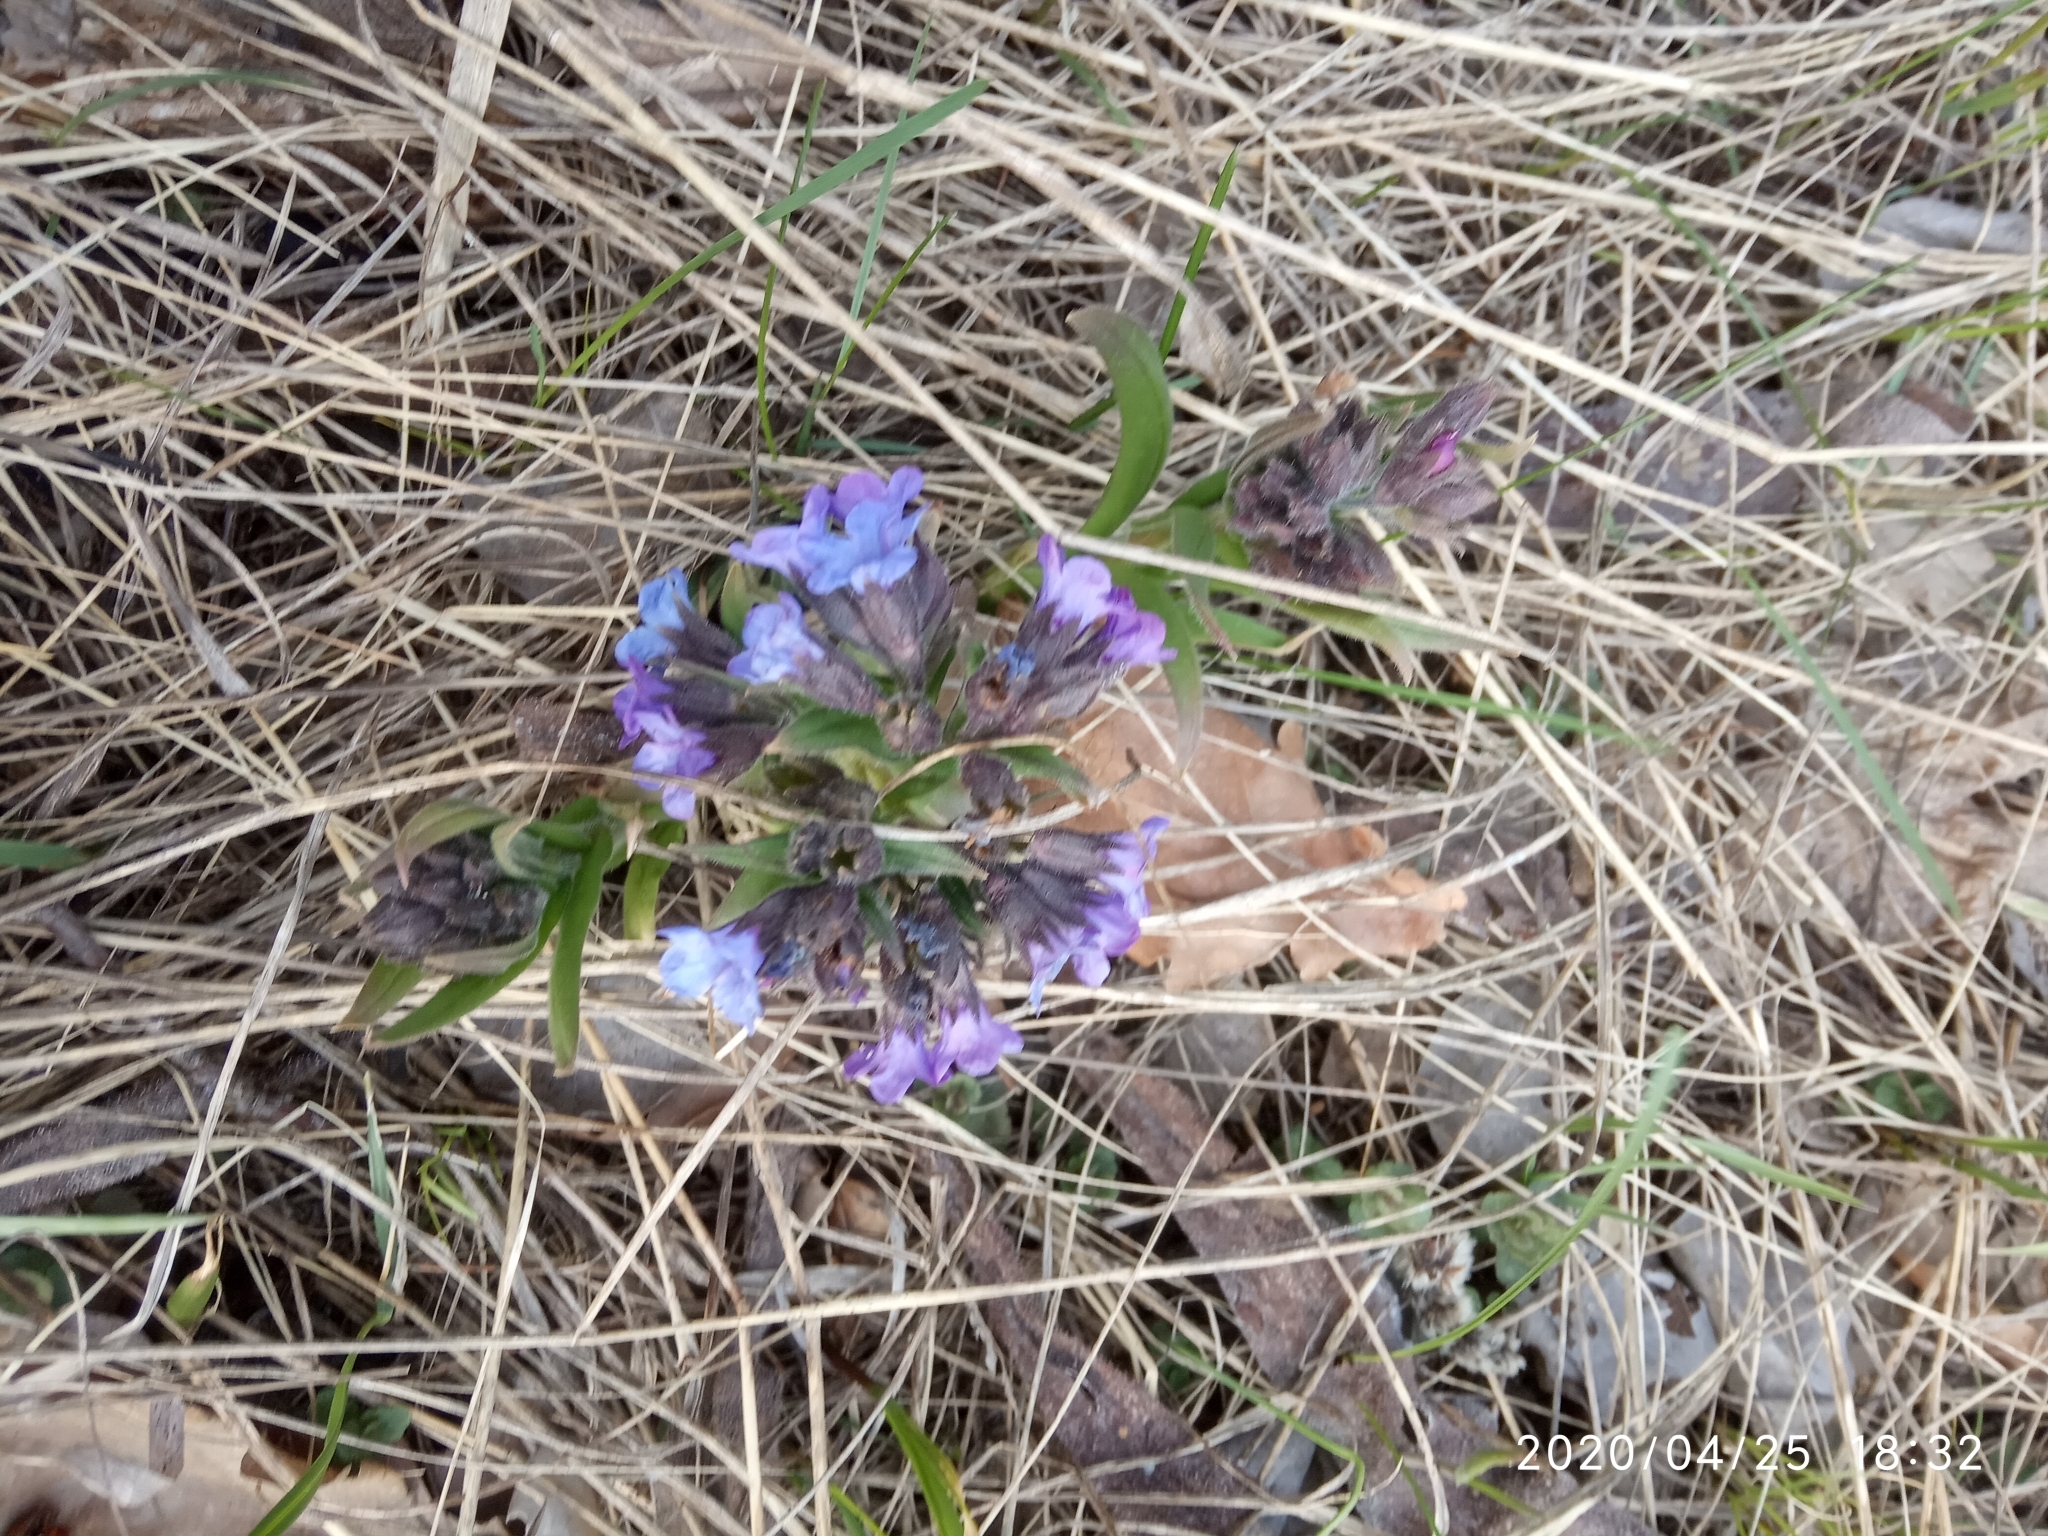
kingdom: Plantae
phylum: Tracheophyta
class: Magnoliopsida
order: Boraginales
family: Boraginaceae
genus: Pulmonaria
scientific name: Pulmonaria obscura
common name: Suffolk lungwort
